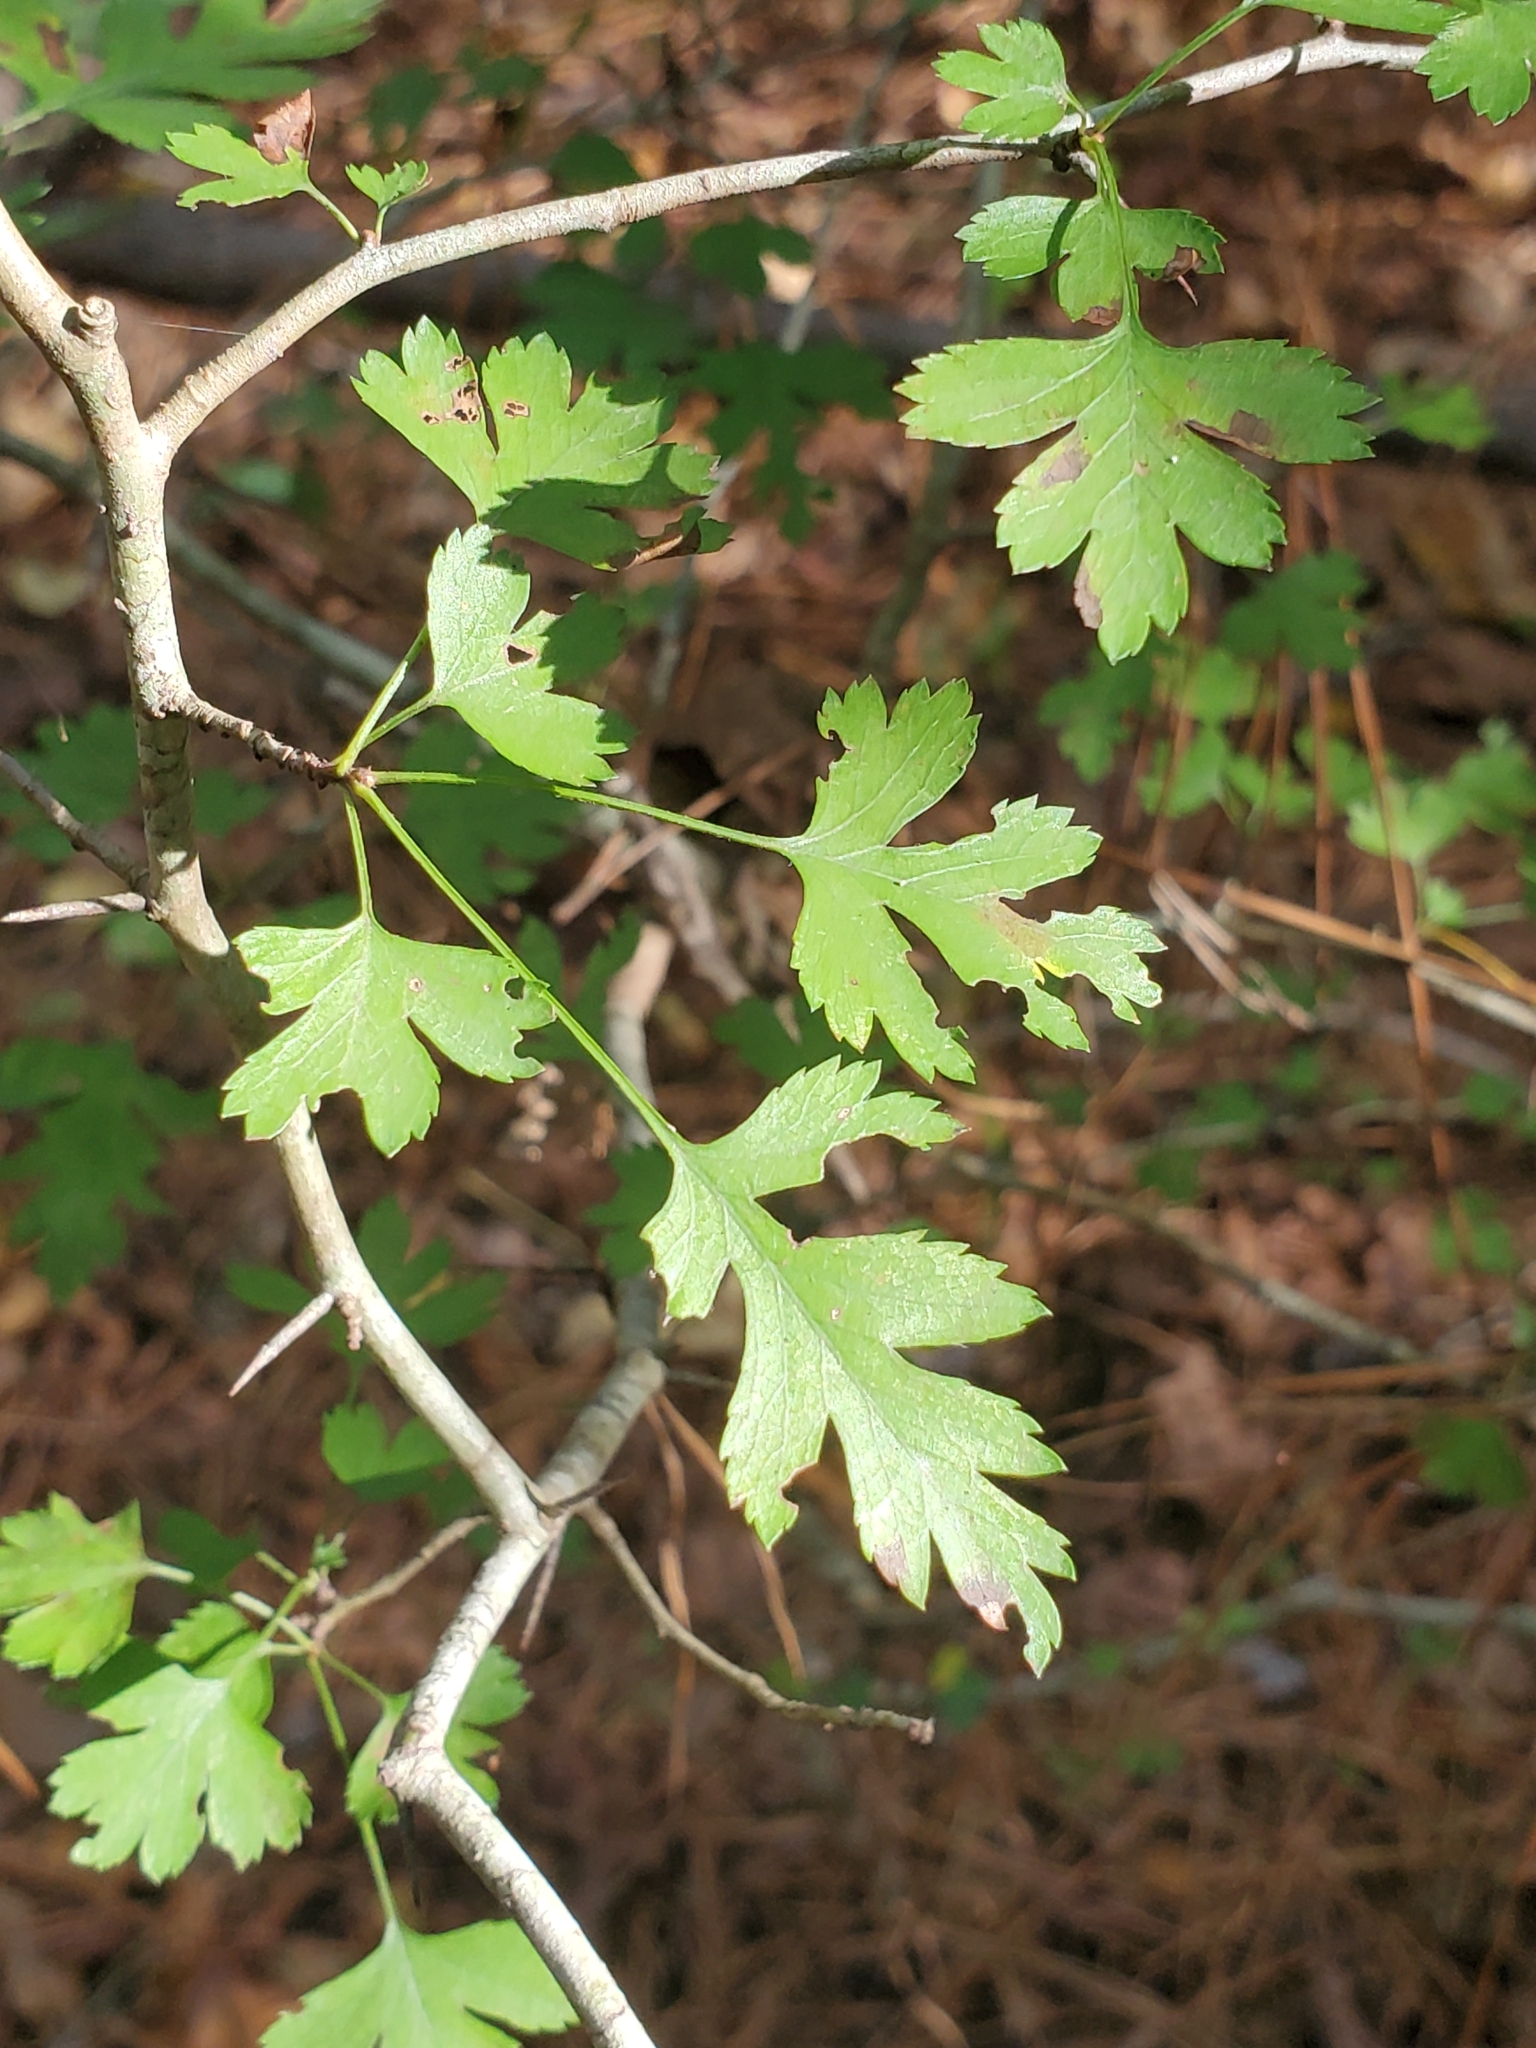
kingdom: Plantae
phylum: Tracheophyta
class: Magnoliopsida
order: Rosales
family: Rosaceae
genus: Crataegus
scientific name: Crataegus marshallii
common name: Parsley-hawthorn
